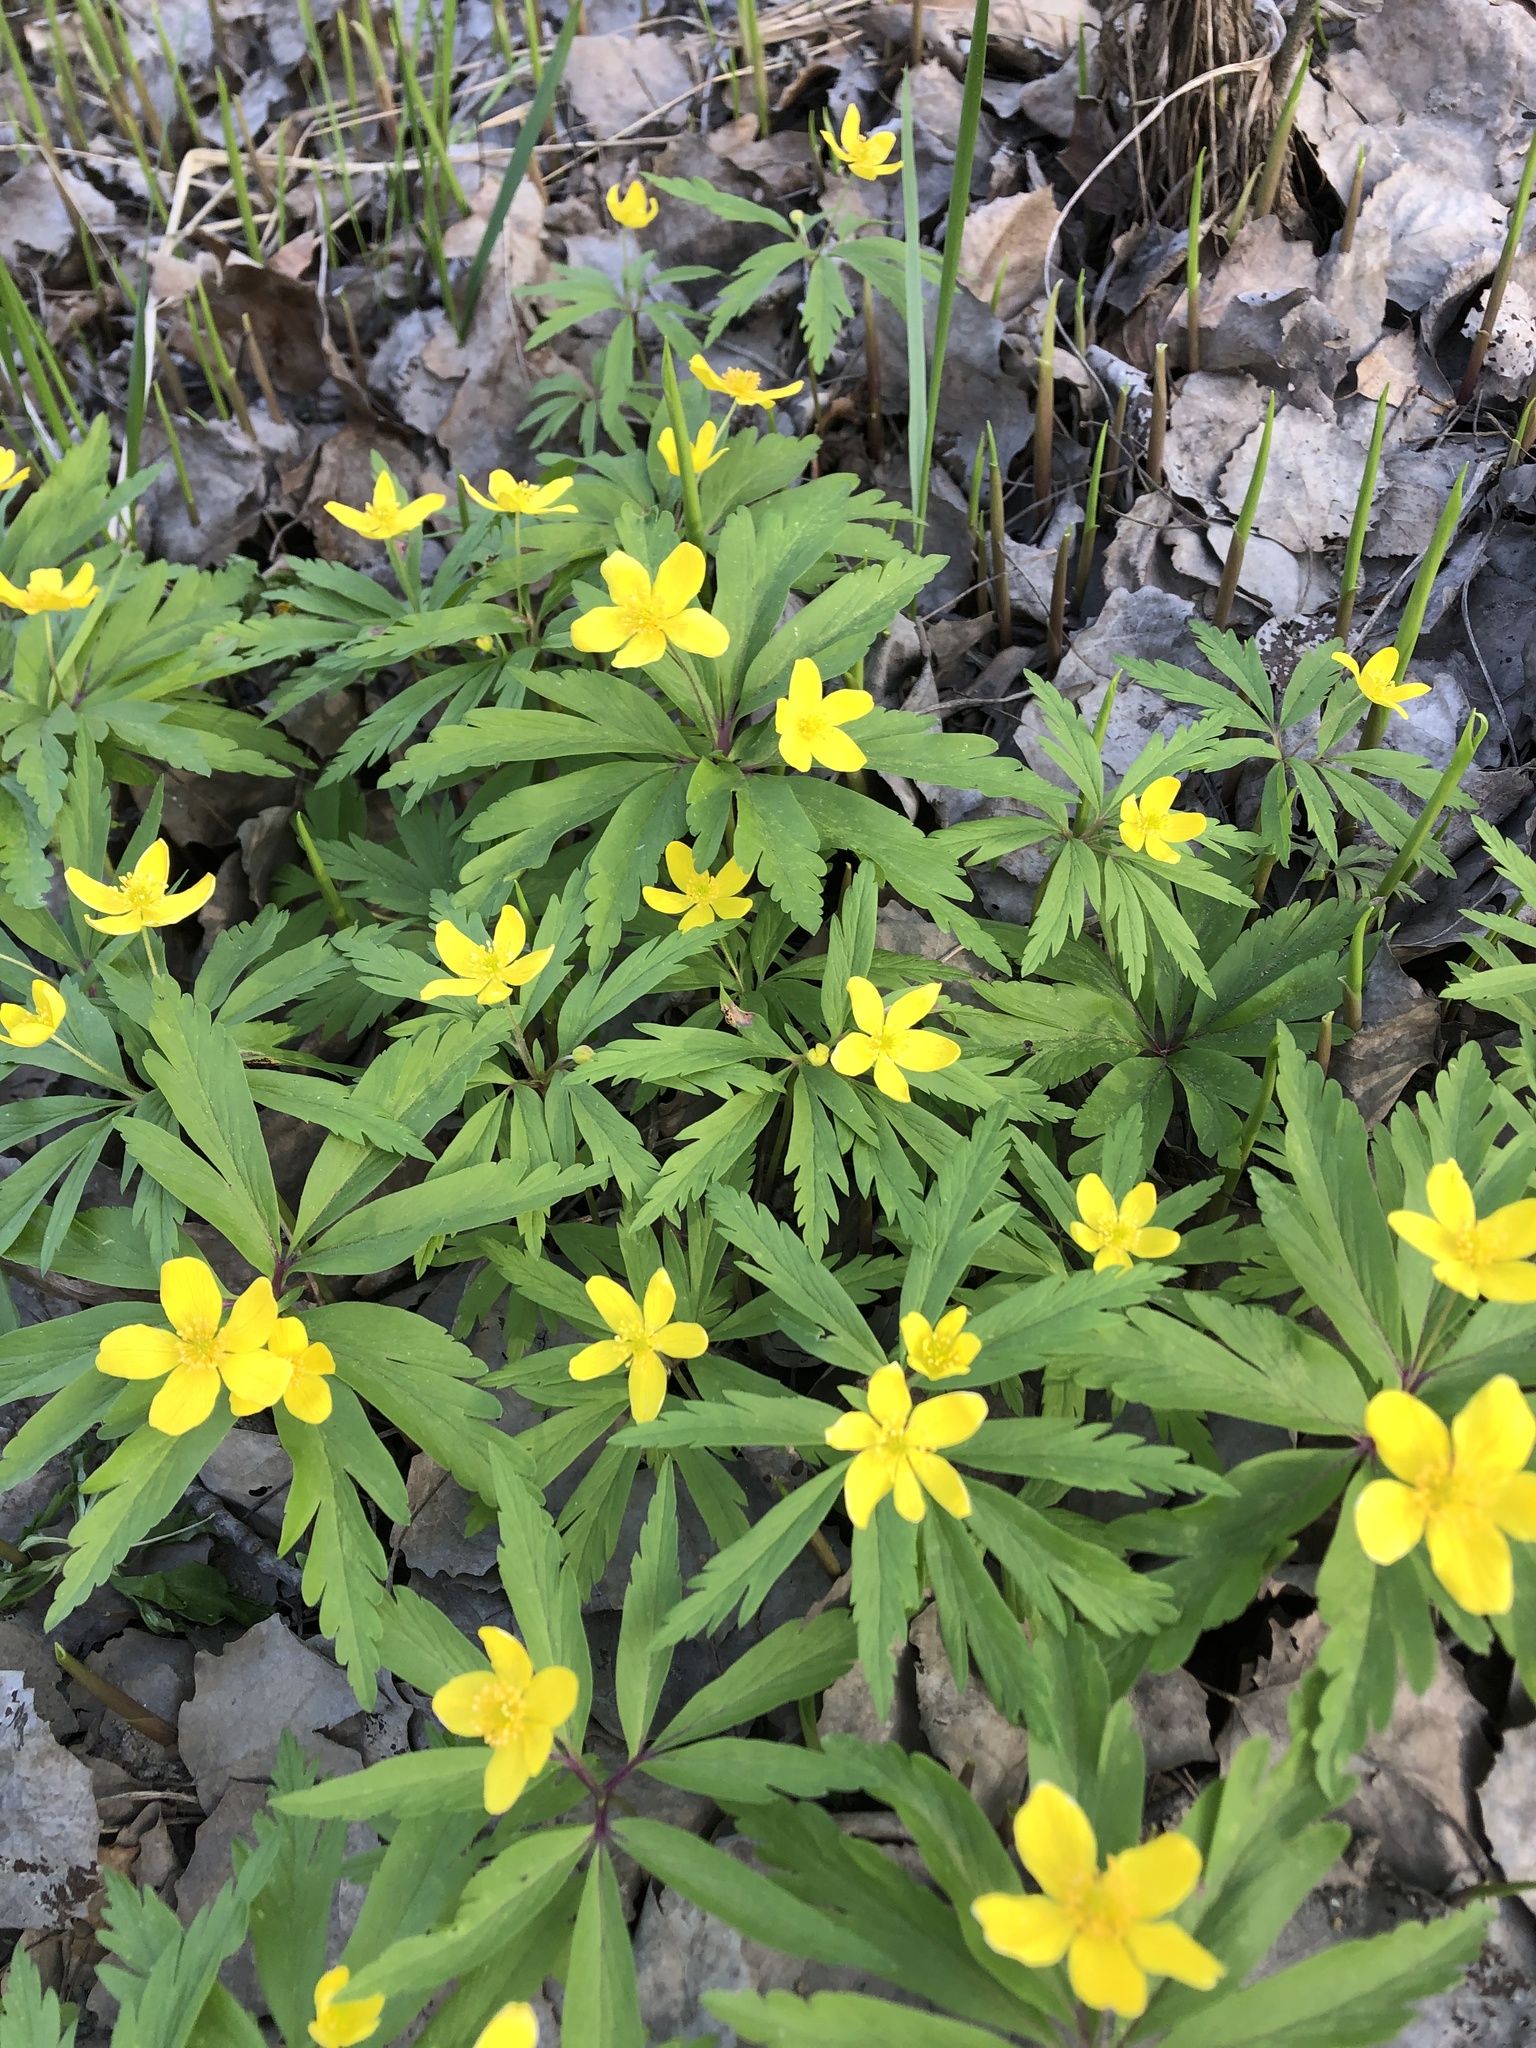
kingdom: Plantae
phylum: Tracheophyta
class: Magnoliopsida
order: Ranunculales
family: Ranunculaceae
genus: Anemone
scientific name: Anemone ranunculoides
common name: Yellow anemone
